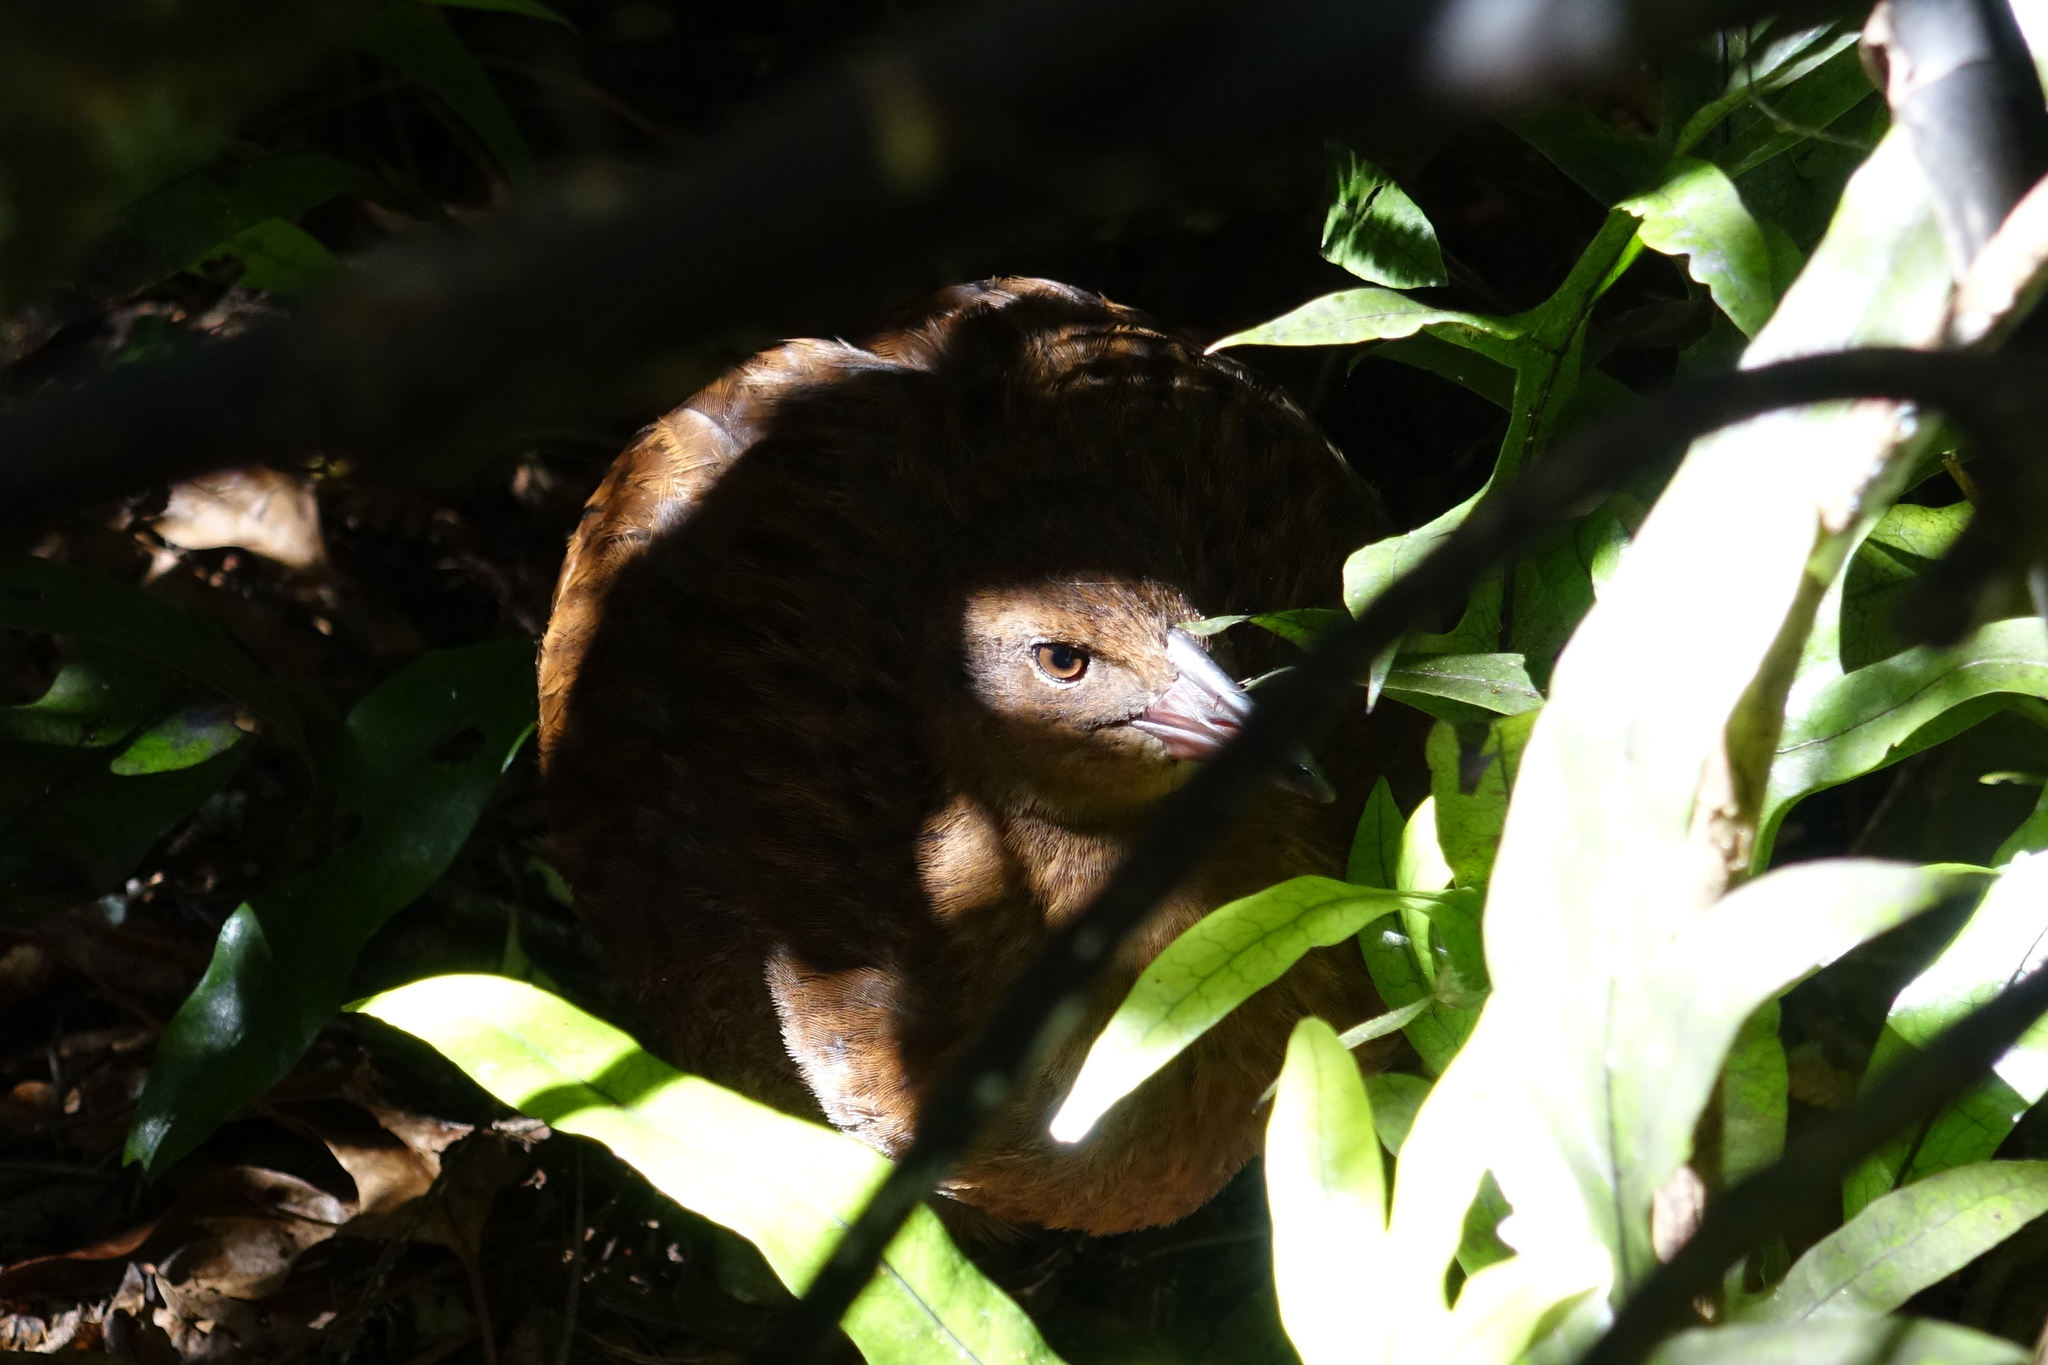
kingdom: Animalia
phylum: Chordata
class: Aves
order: Gruiformes
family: Rallidae
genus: Gallirallus
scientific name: Gallirallus australis
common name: Weka
